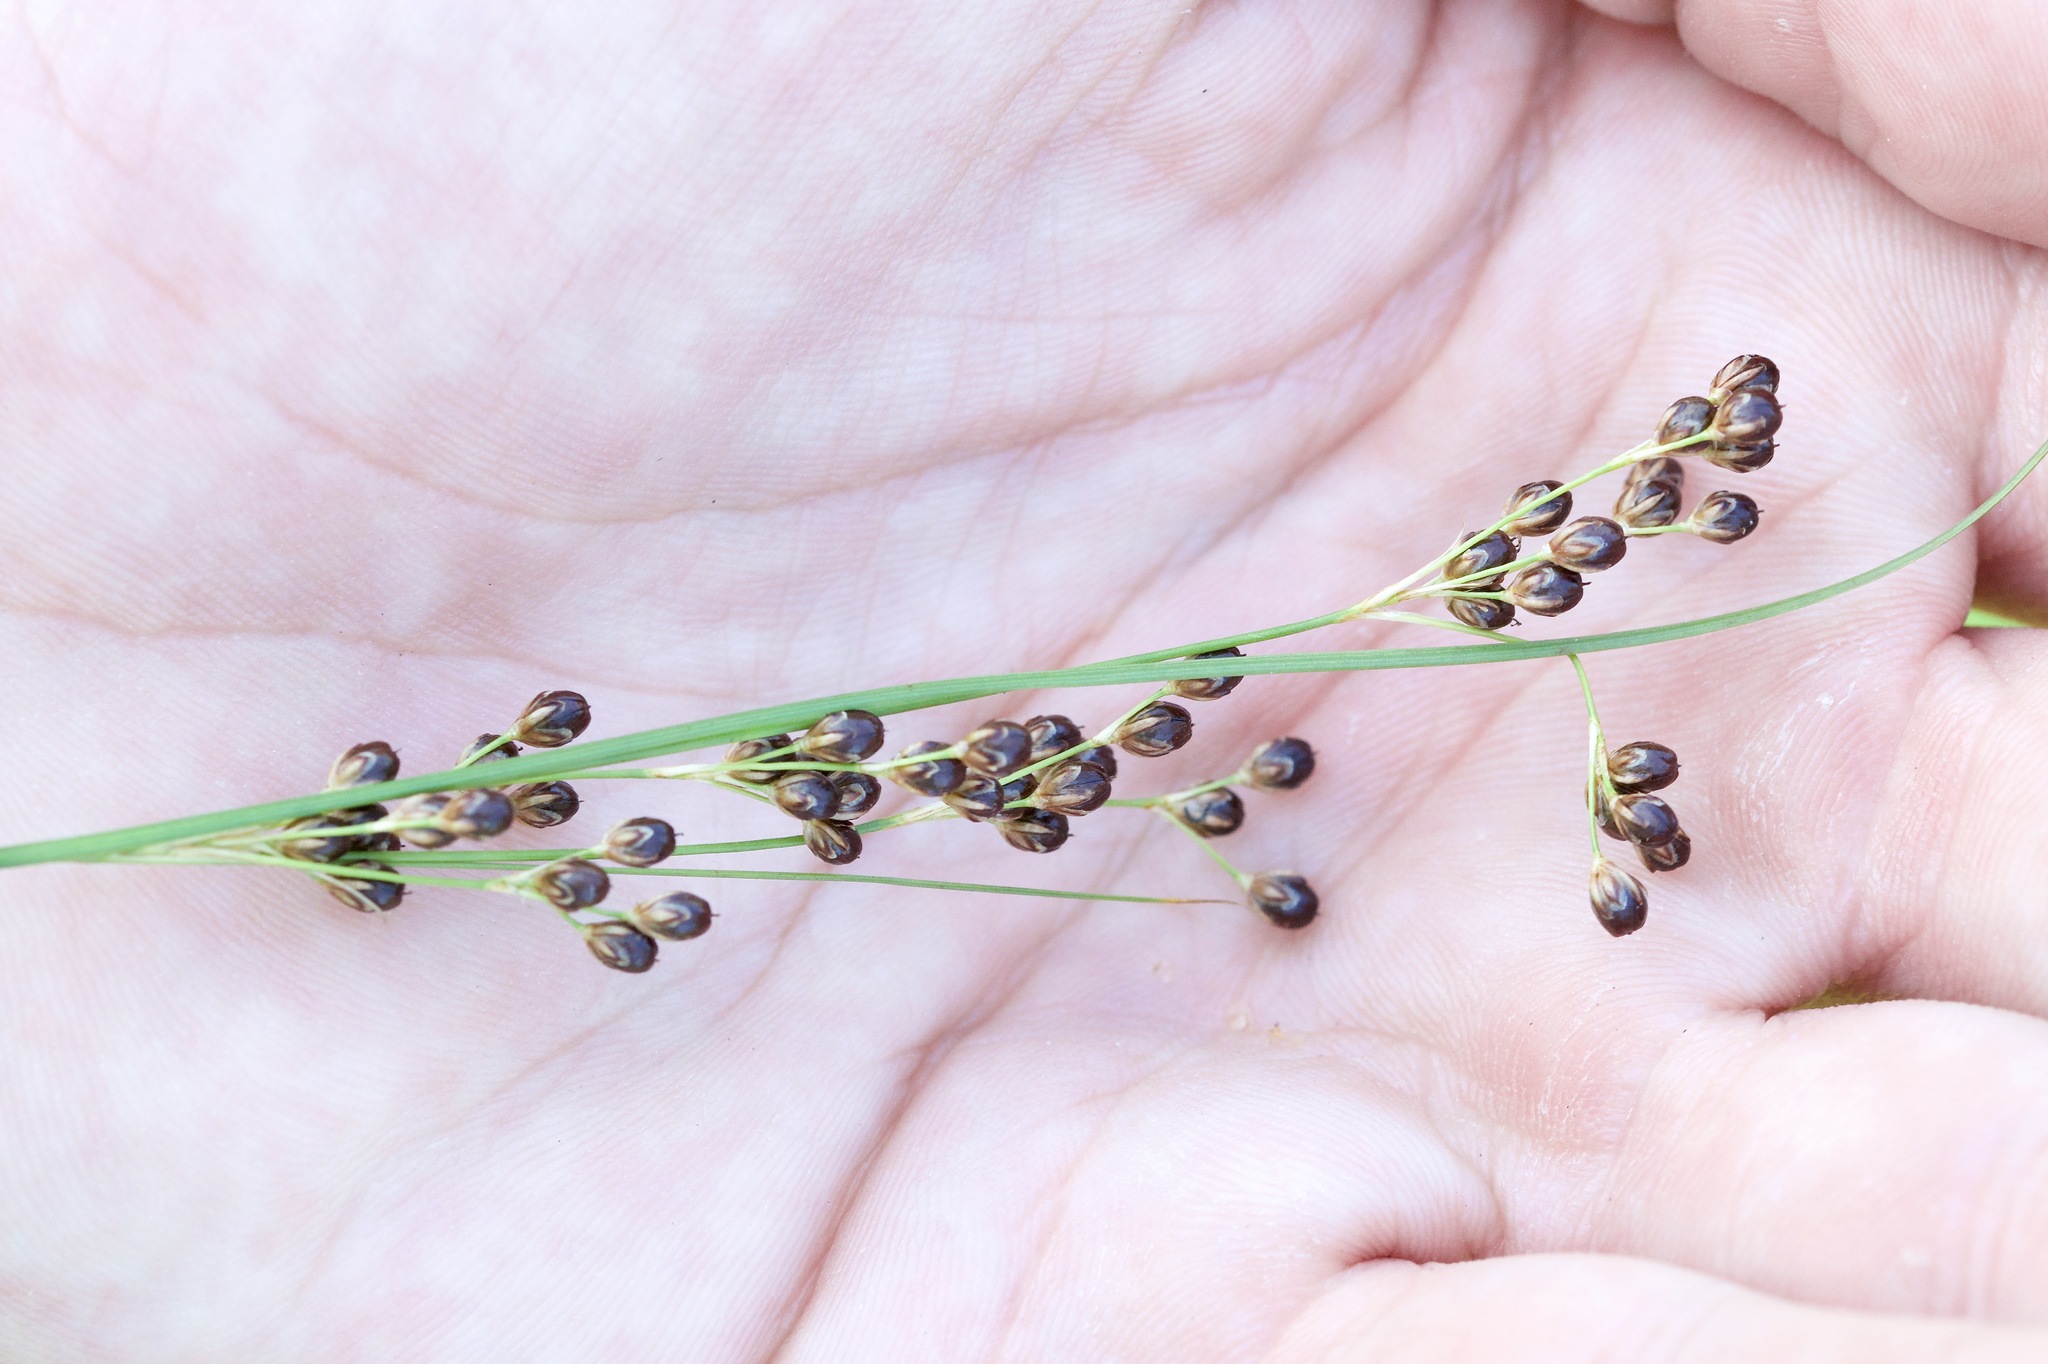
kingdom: Plantae
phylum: Tracheophyta
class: Liliopsida
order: Poales
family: Juncaceae
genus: Juncus
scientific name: Juncus compressus
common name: Round-fruited rush
